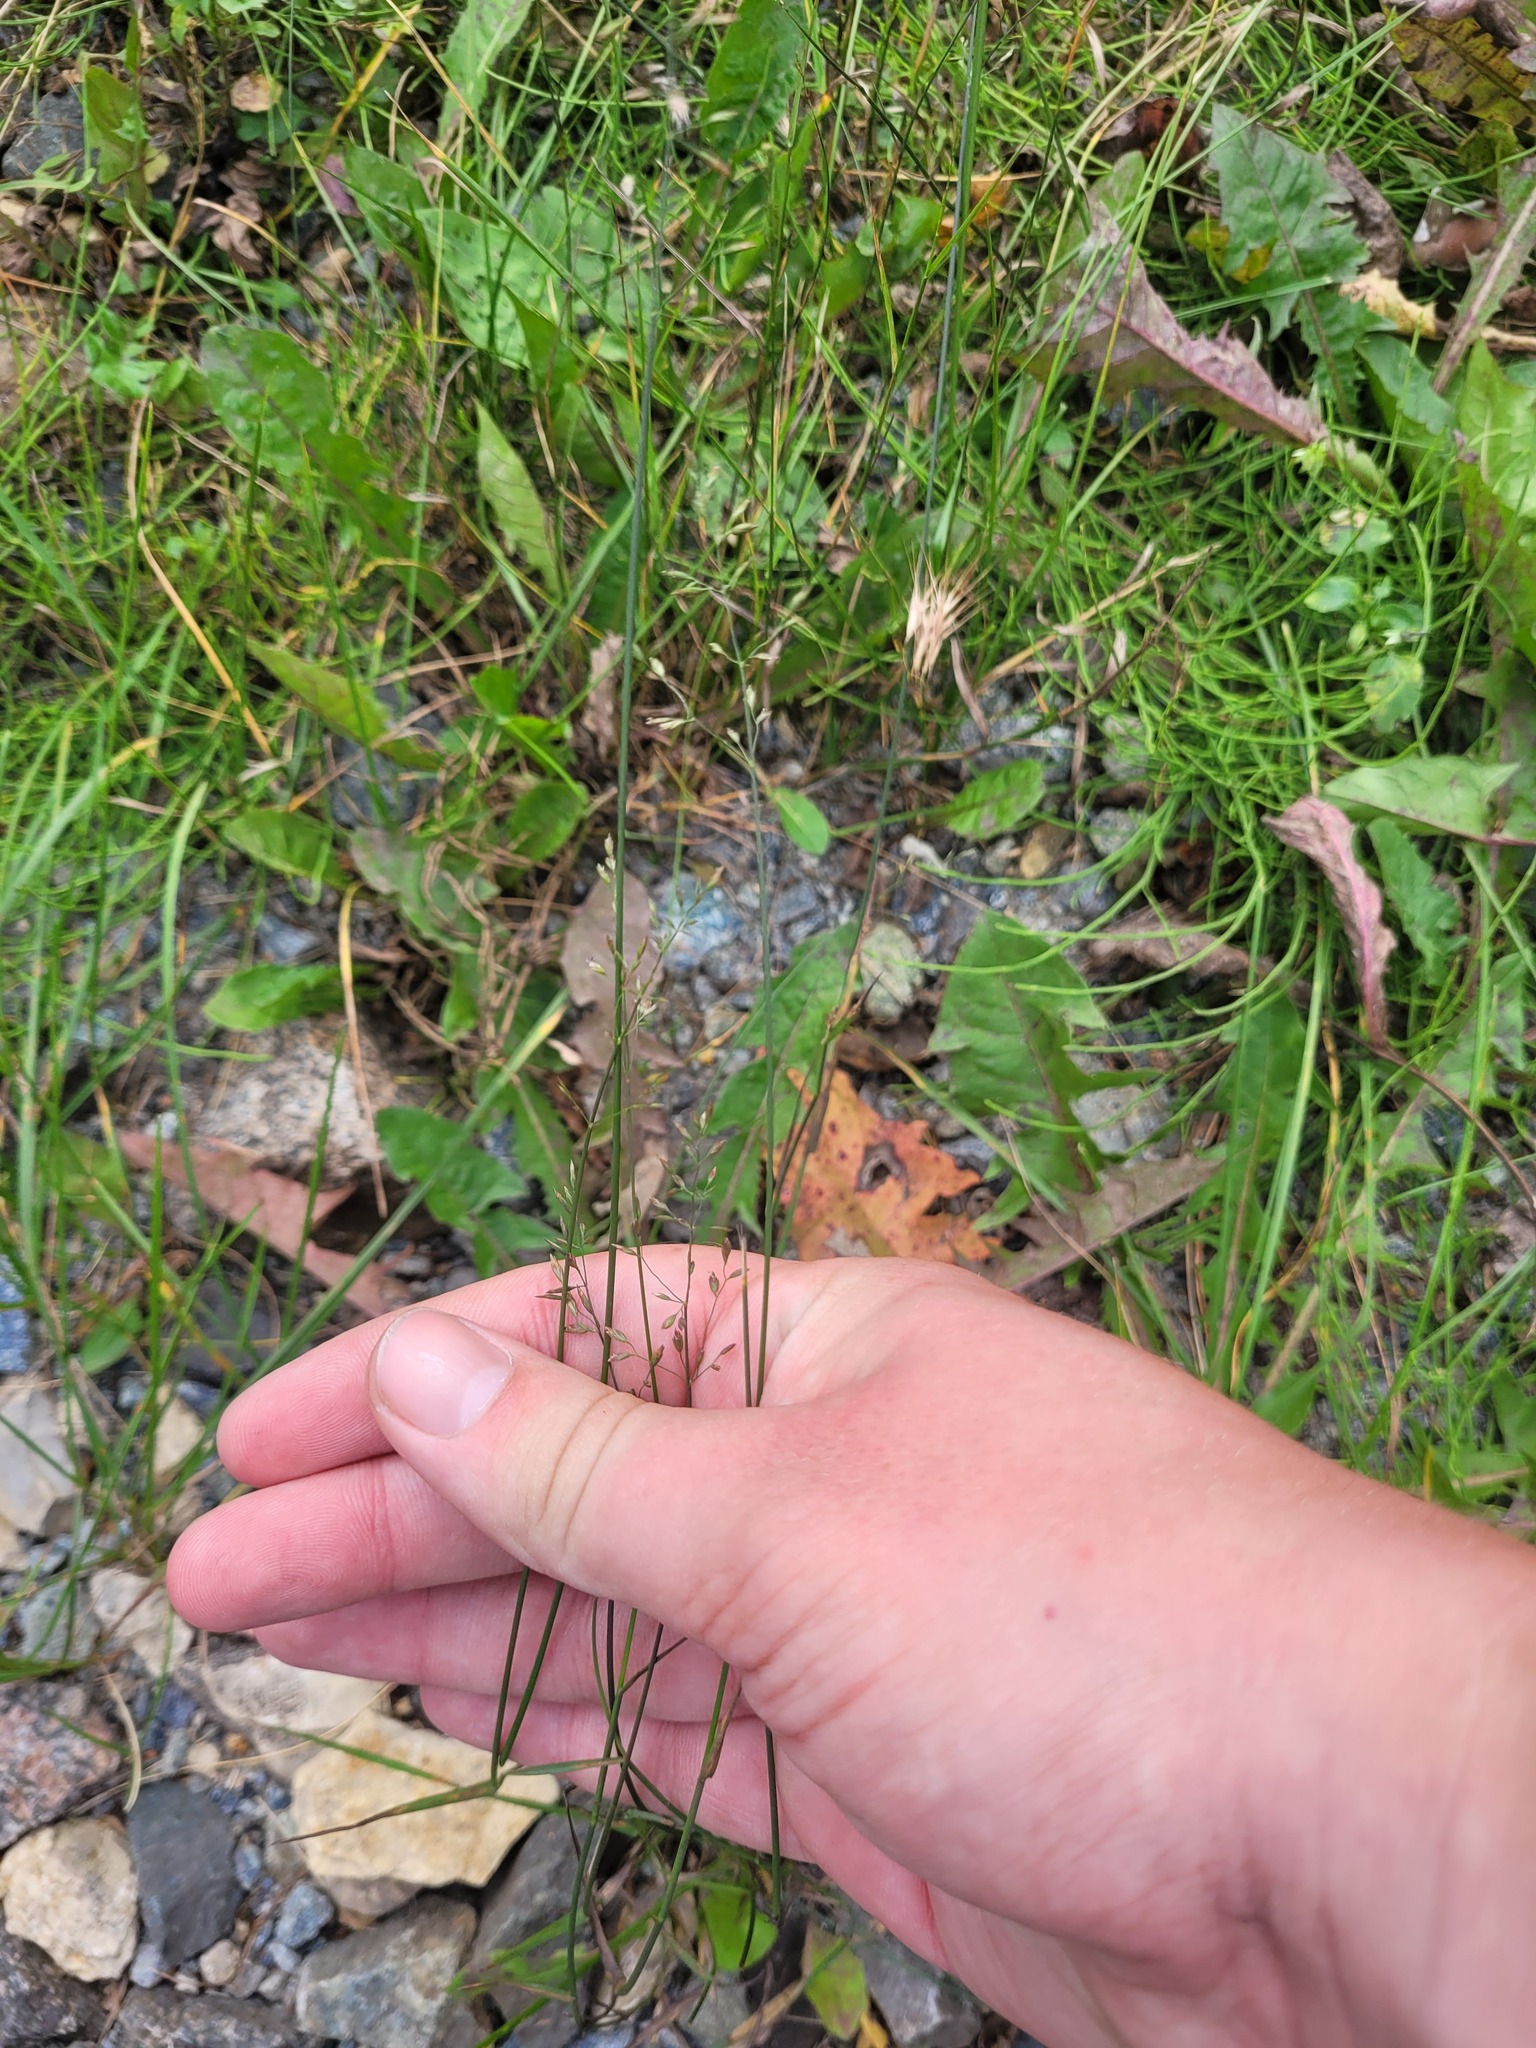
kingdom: Plantae
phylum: Tracheophyta
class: Liliopsida
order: Poales
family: Poaceae
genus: Poa
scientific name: Poa compressa
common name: Canada bluegrass
